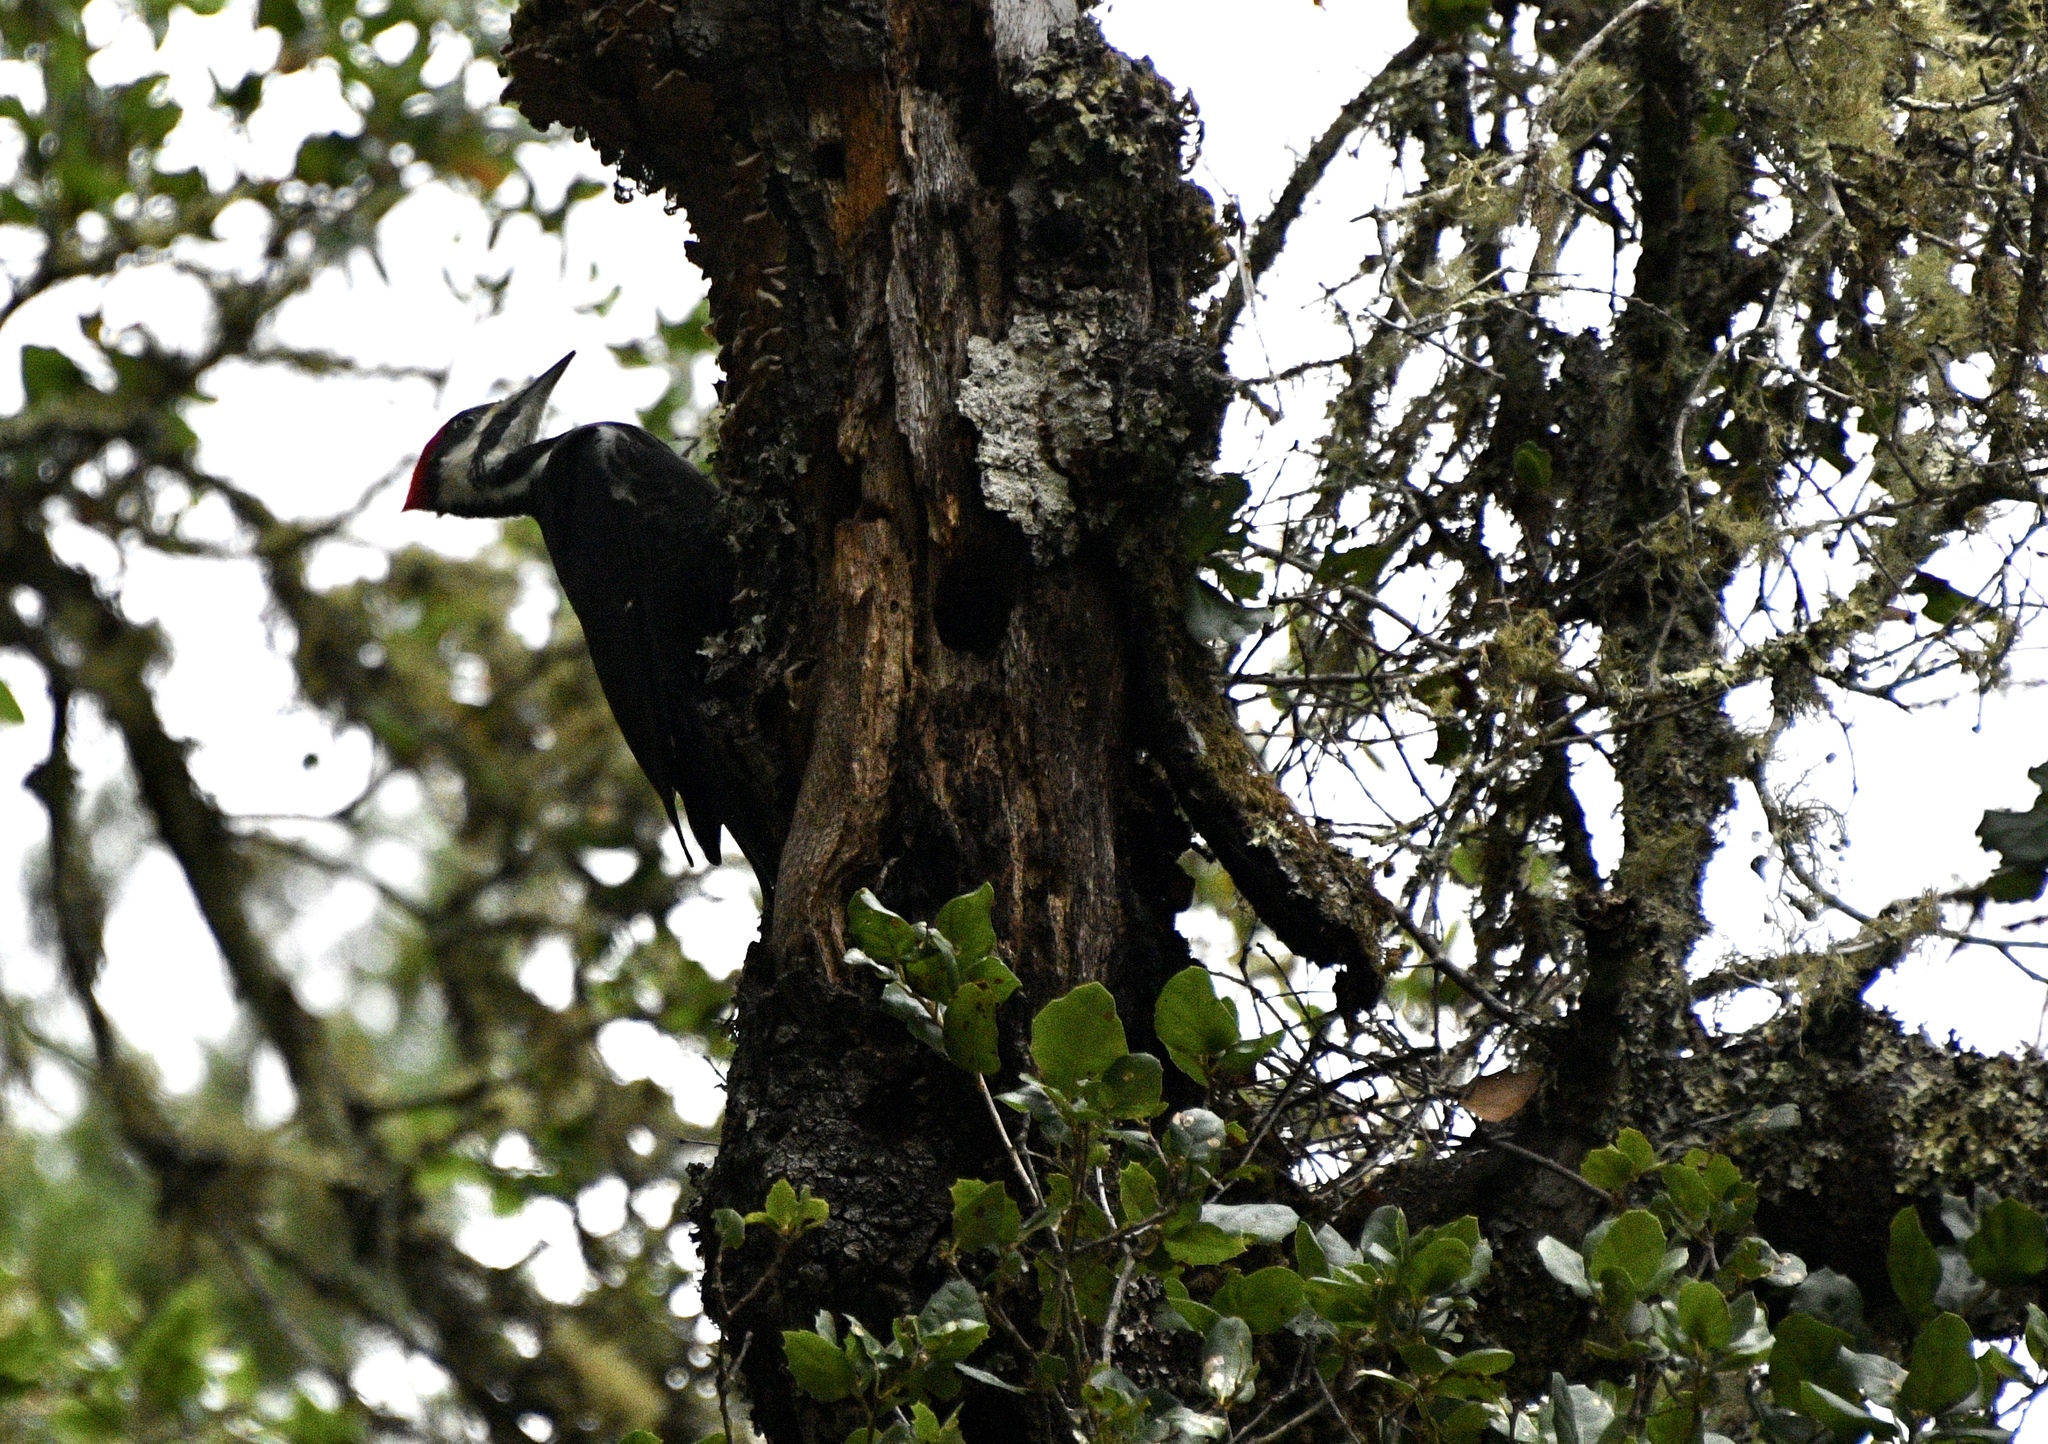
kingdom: Animalia
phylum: Chordata
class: Aves
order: Piciformes
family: Picidae
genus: Dryocopus
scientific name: Dryocopus pileatus
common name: Pileated woodpecker
